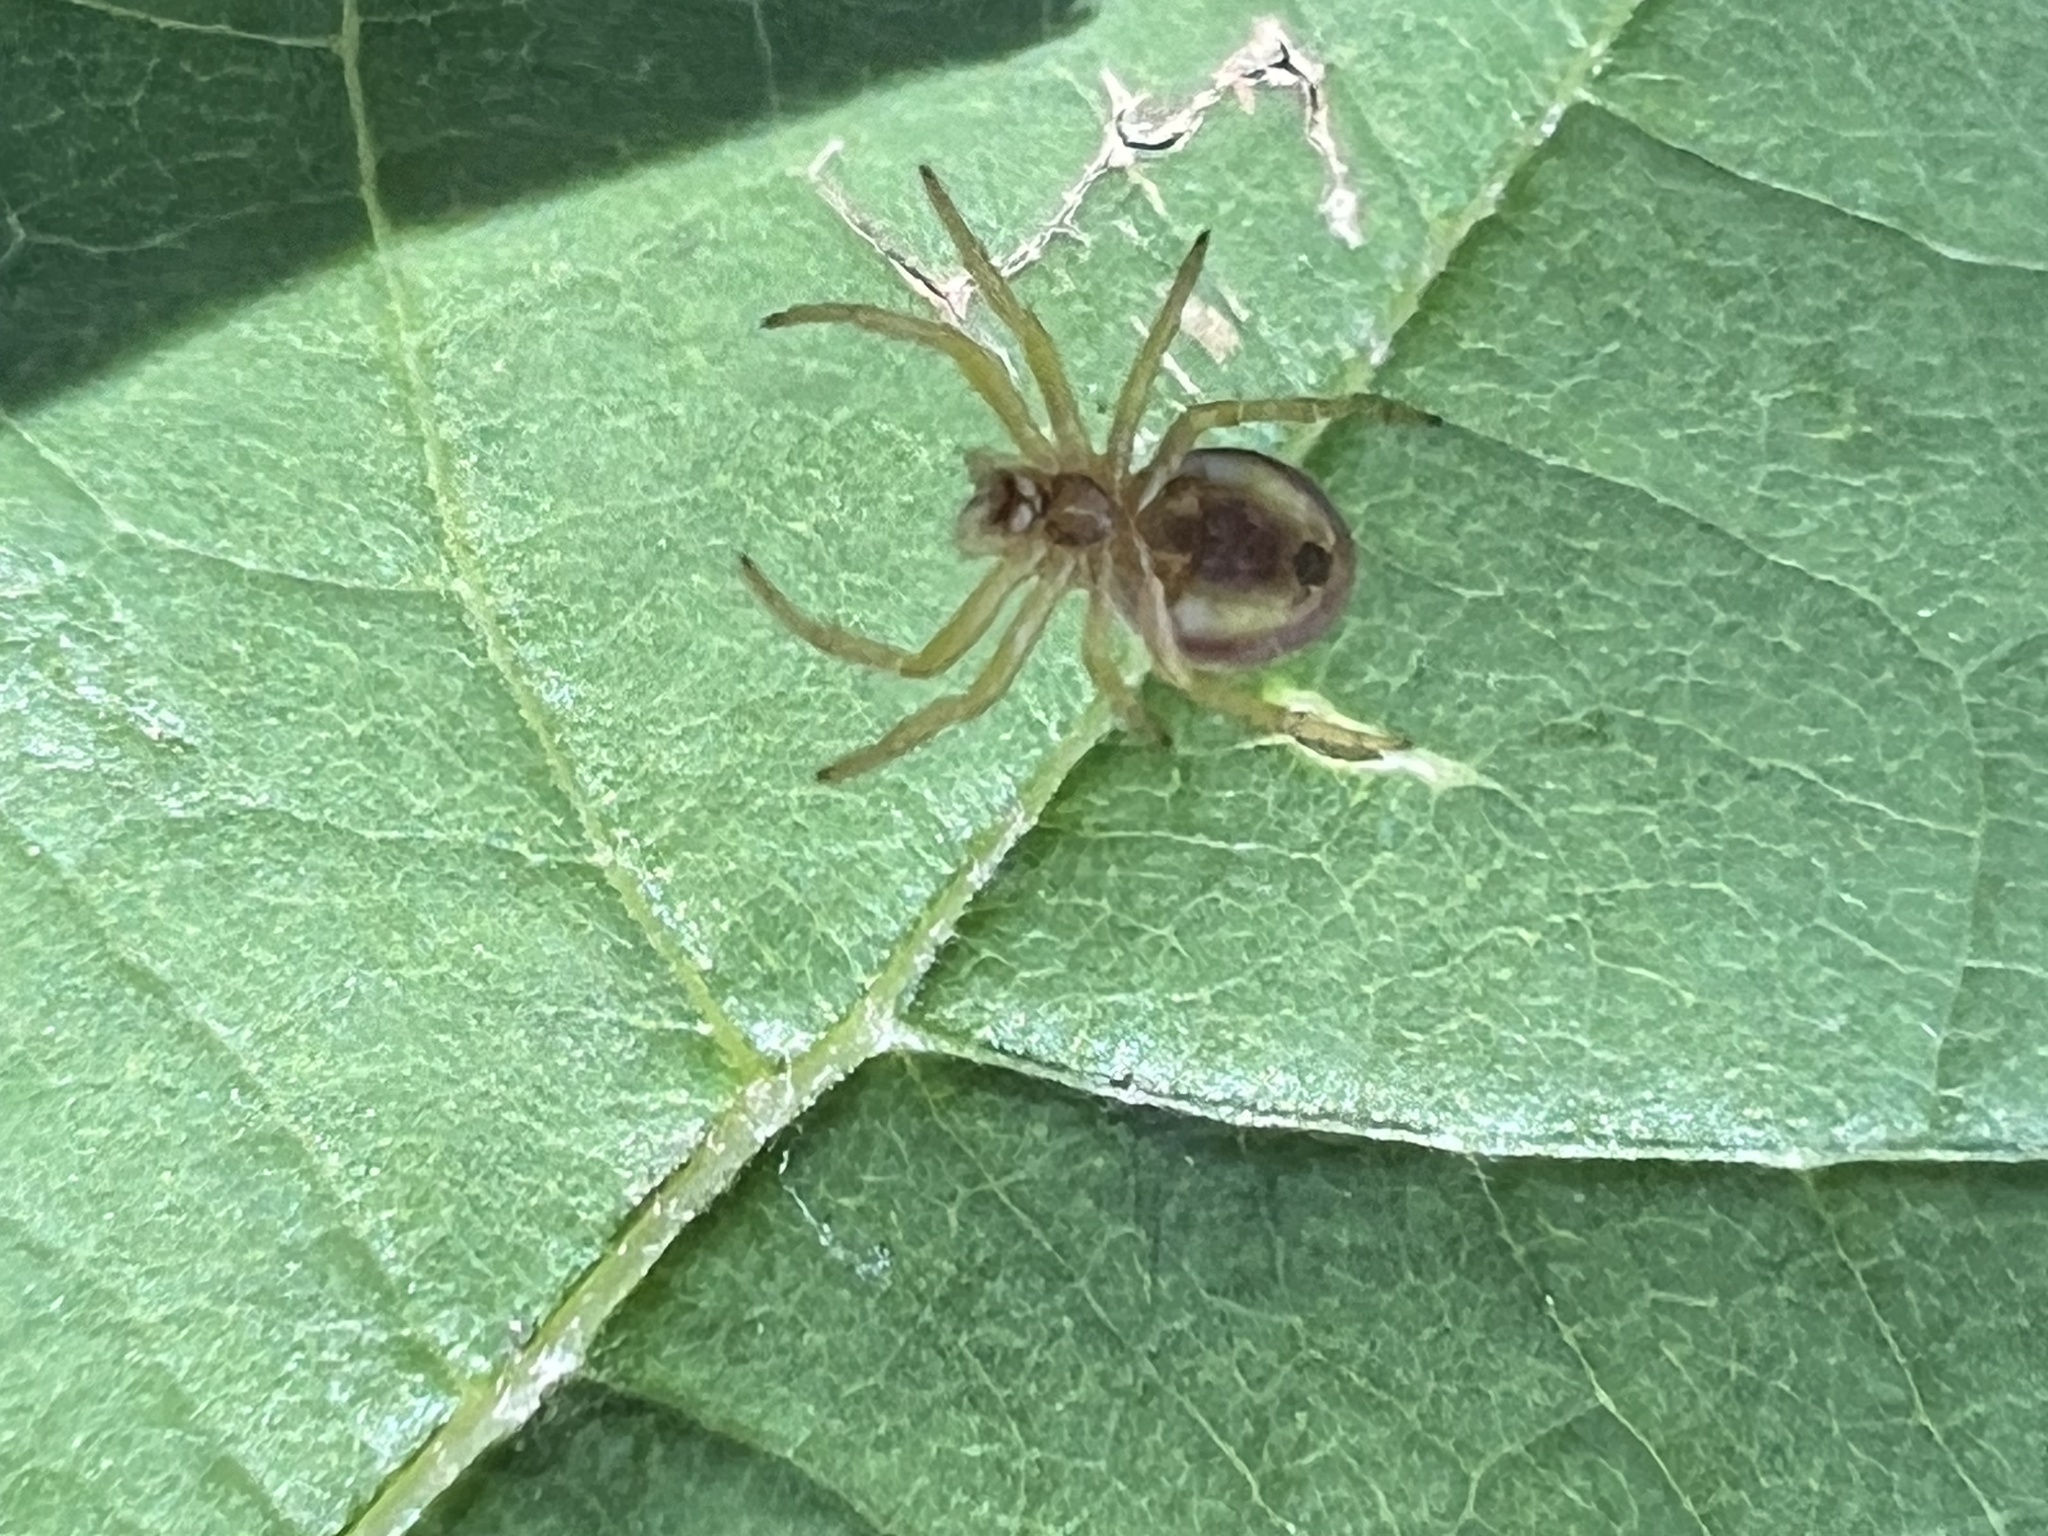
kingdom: Animalia
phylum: Arthropoda
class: Arachnida
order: Araneae
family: Araneidae
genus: Araniella
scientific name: Araniella displicata
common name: Sixspotted orb weaver
